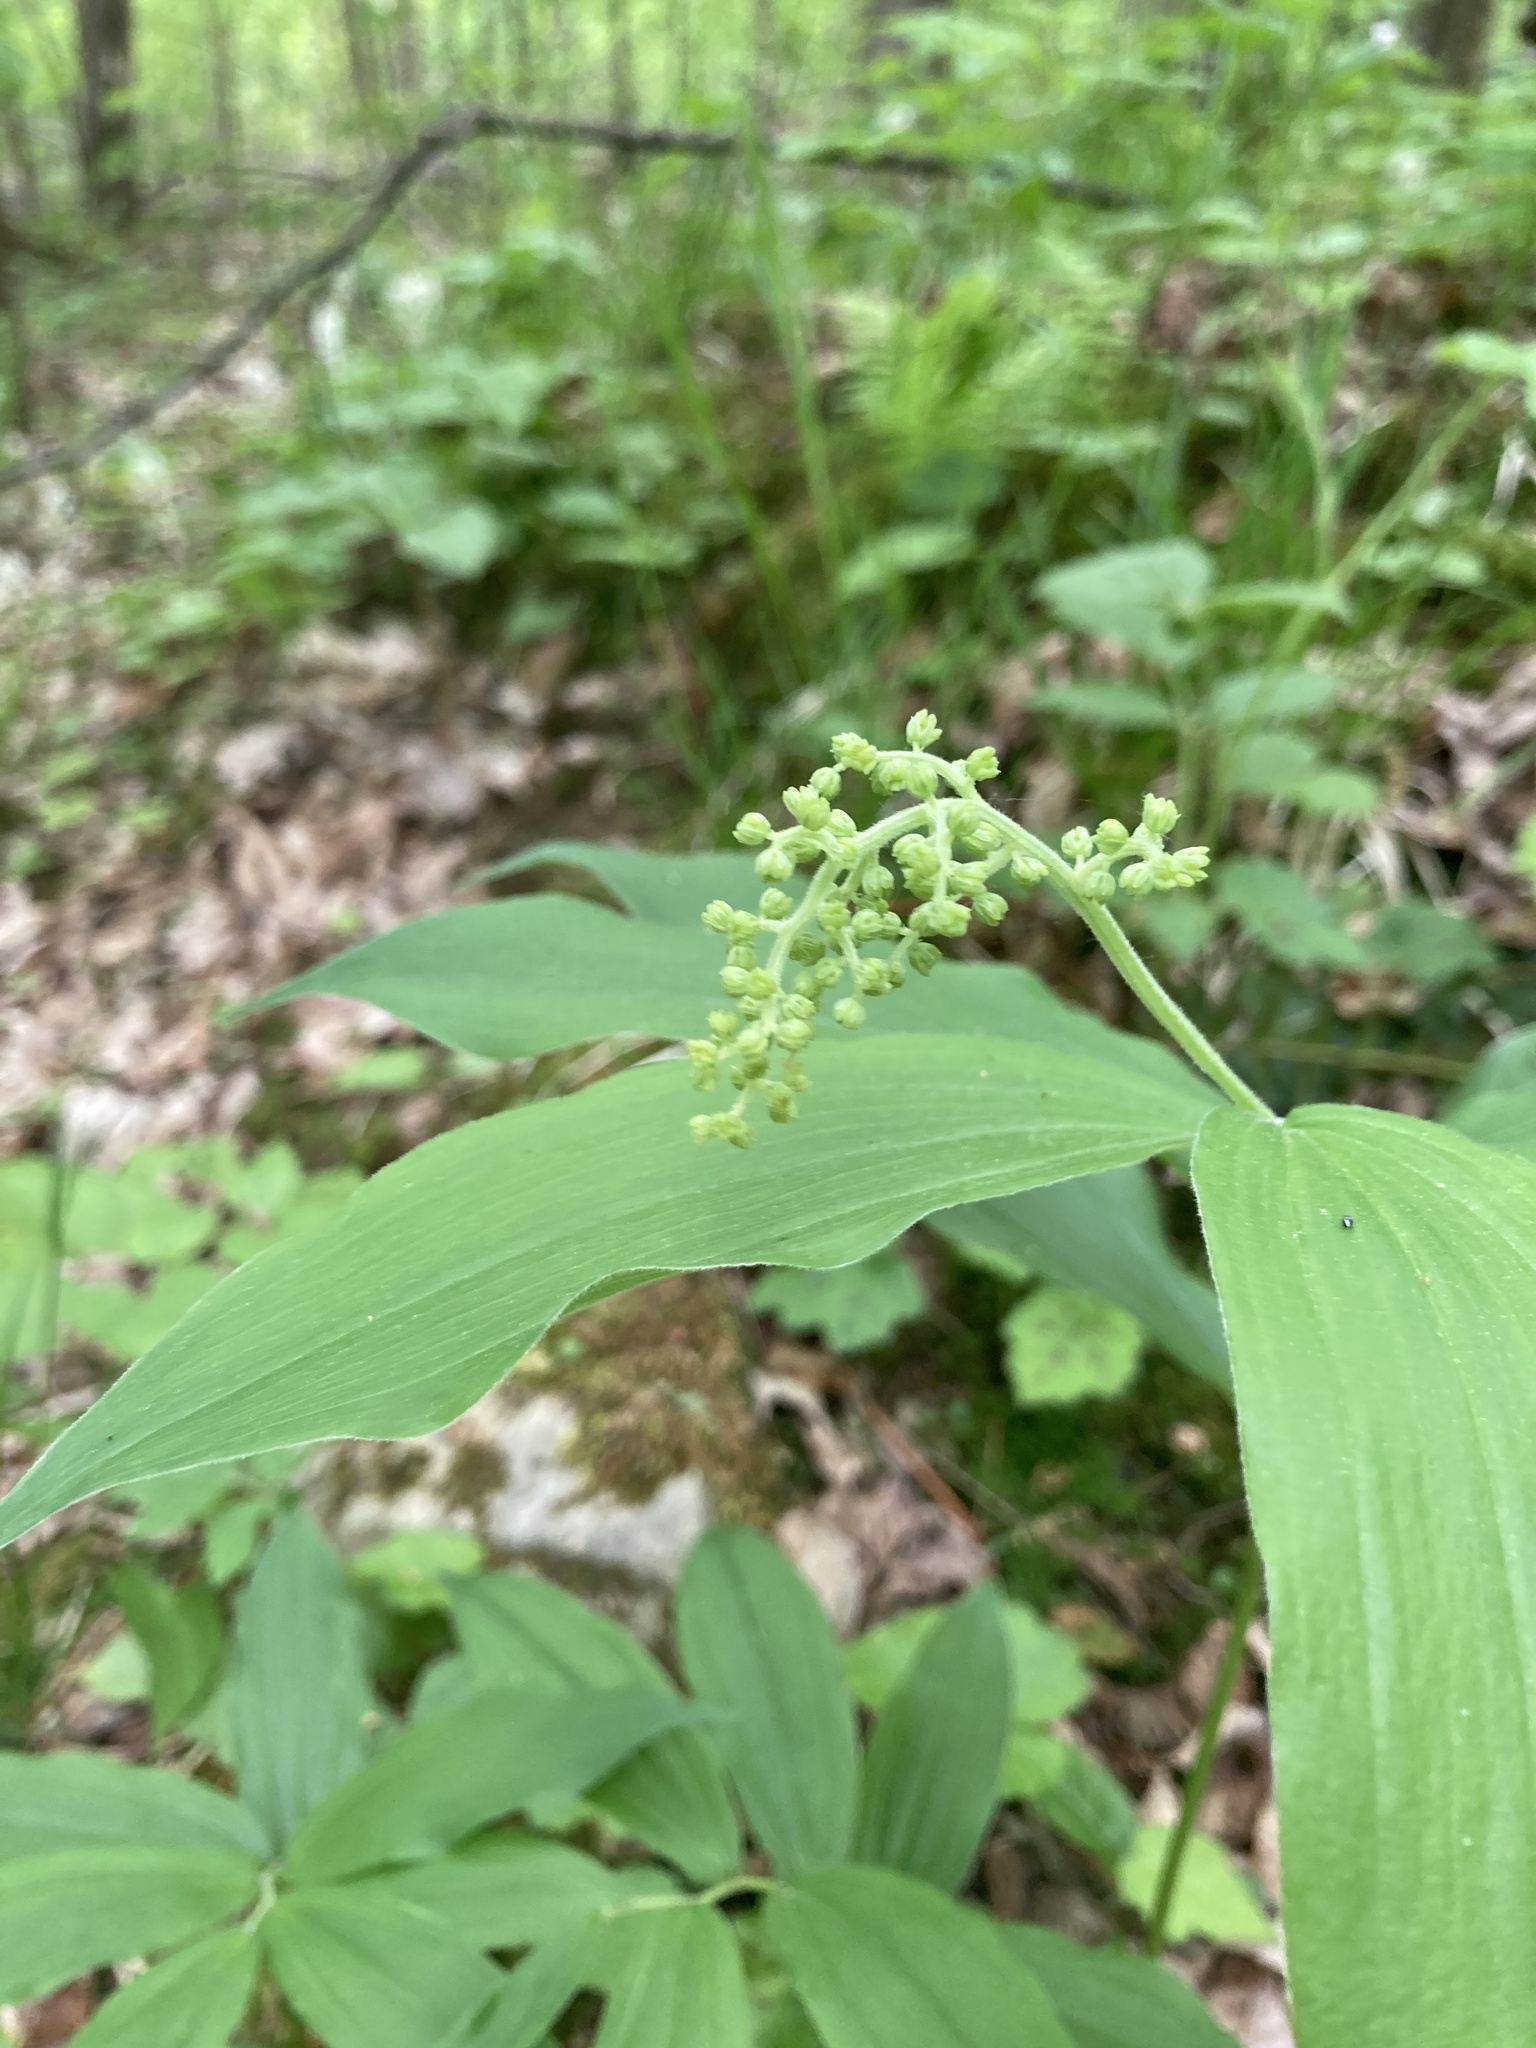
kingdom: Plantae
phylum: Tracheophyta
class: Liliopsida
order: Asparagales
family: Asparagaceae
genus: Maianthemum
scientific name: Maianthemum racemosum
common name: False spikenard
